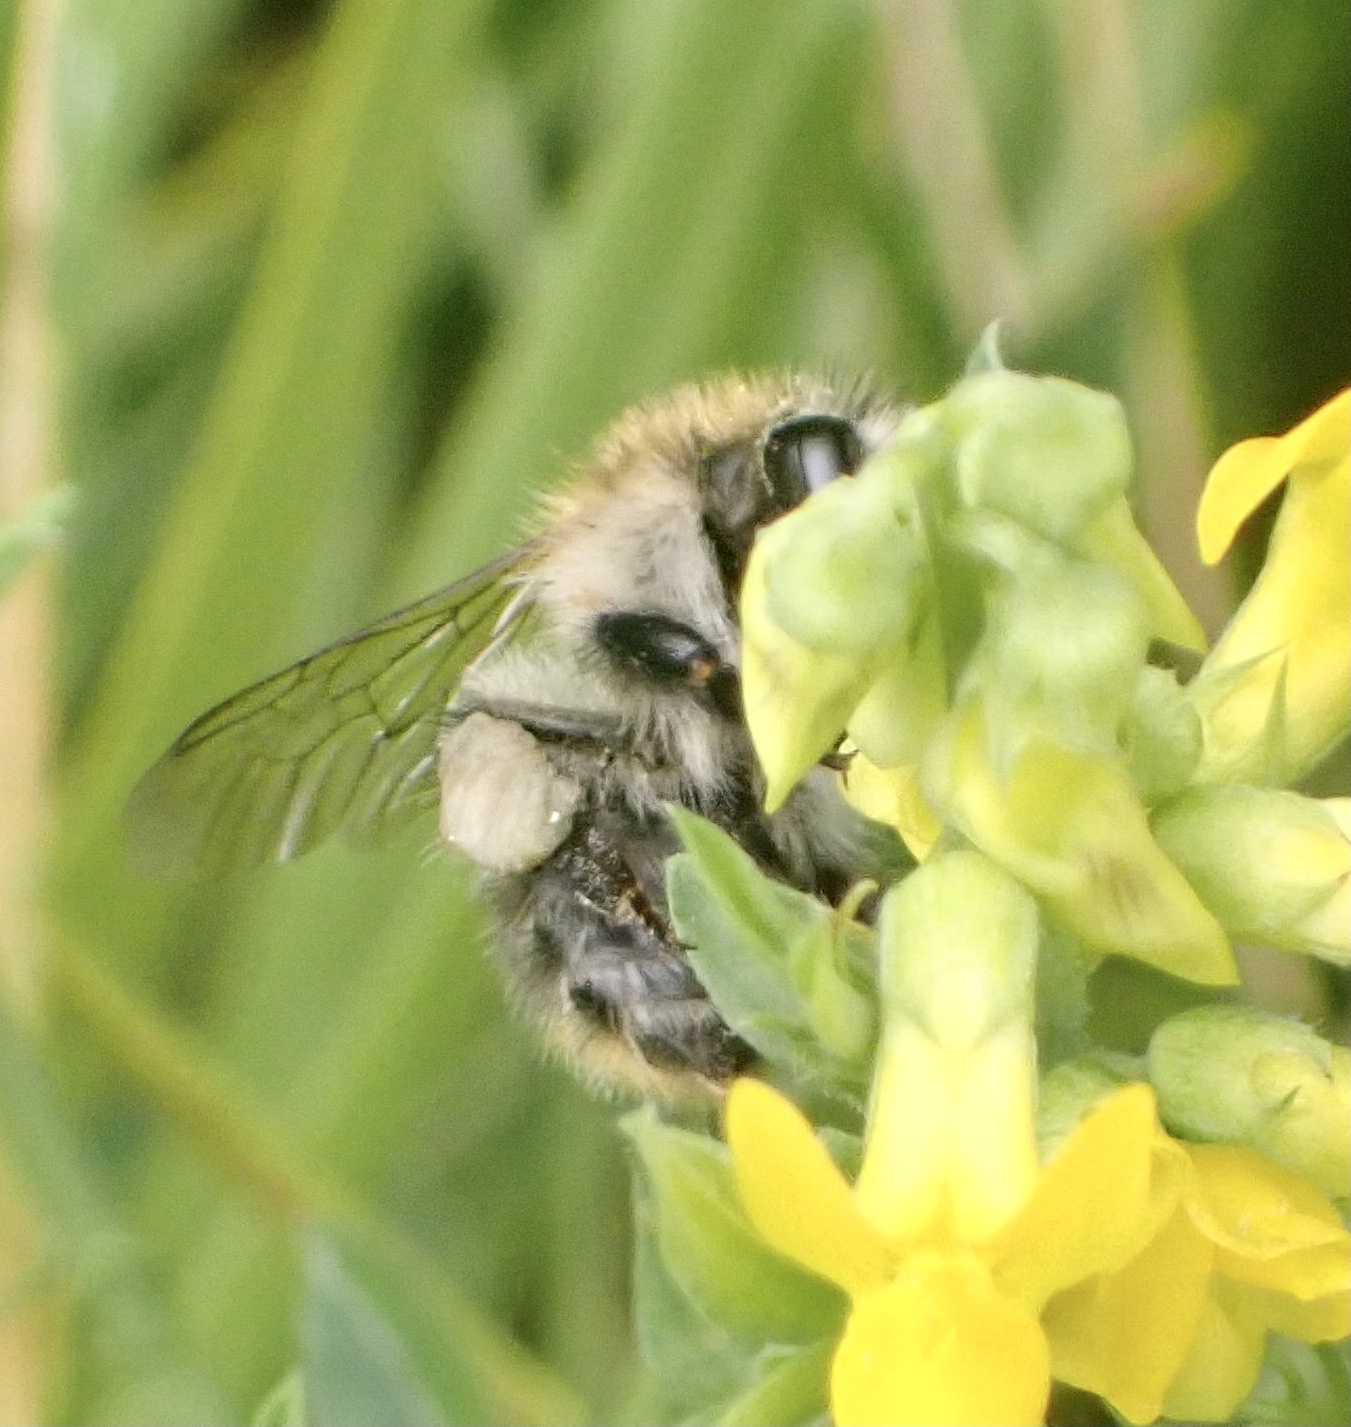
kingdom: Animalia
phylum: Arthropoda
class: Insecta
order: Hymenoptera
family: Apidae
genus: Bombus
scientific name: Bombus pascuorum
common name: Common carder bee
